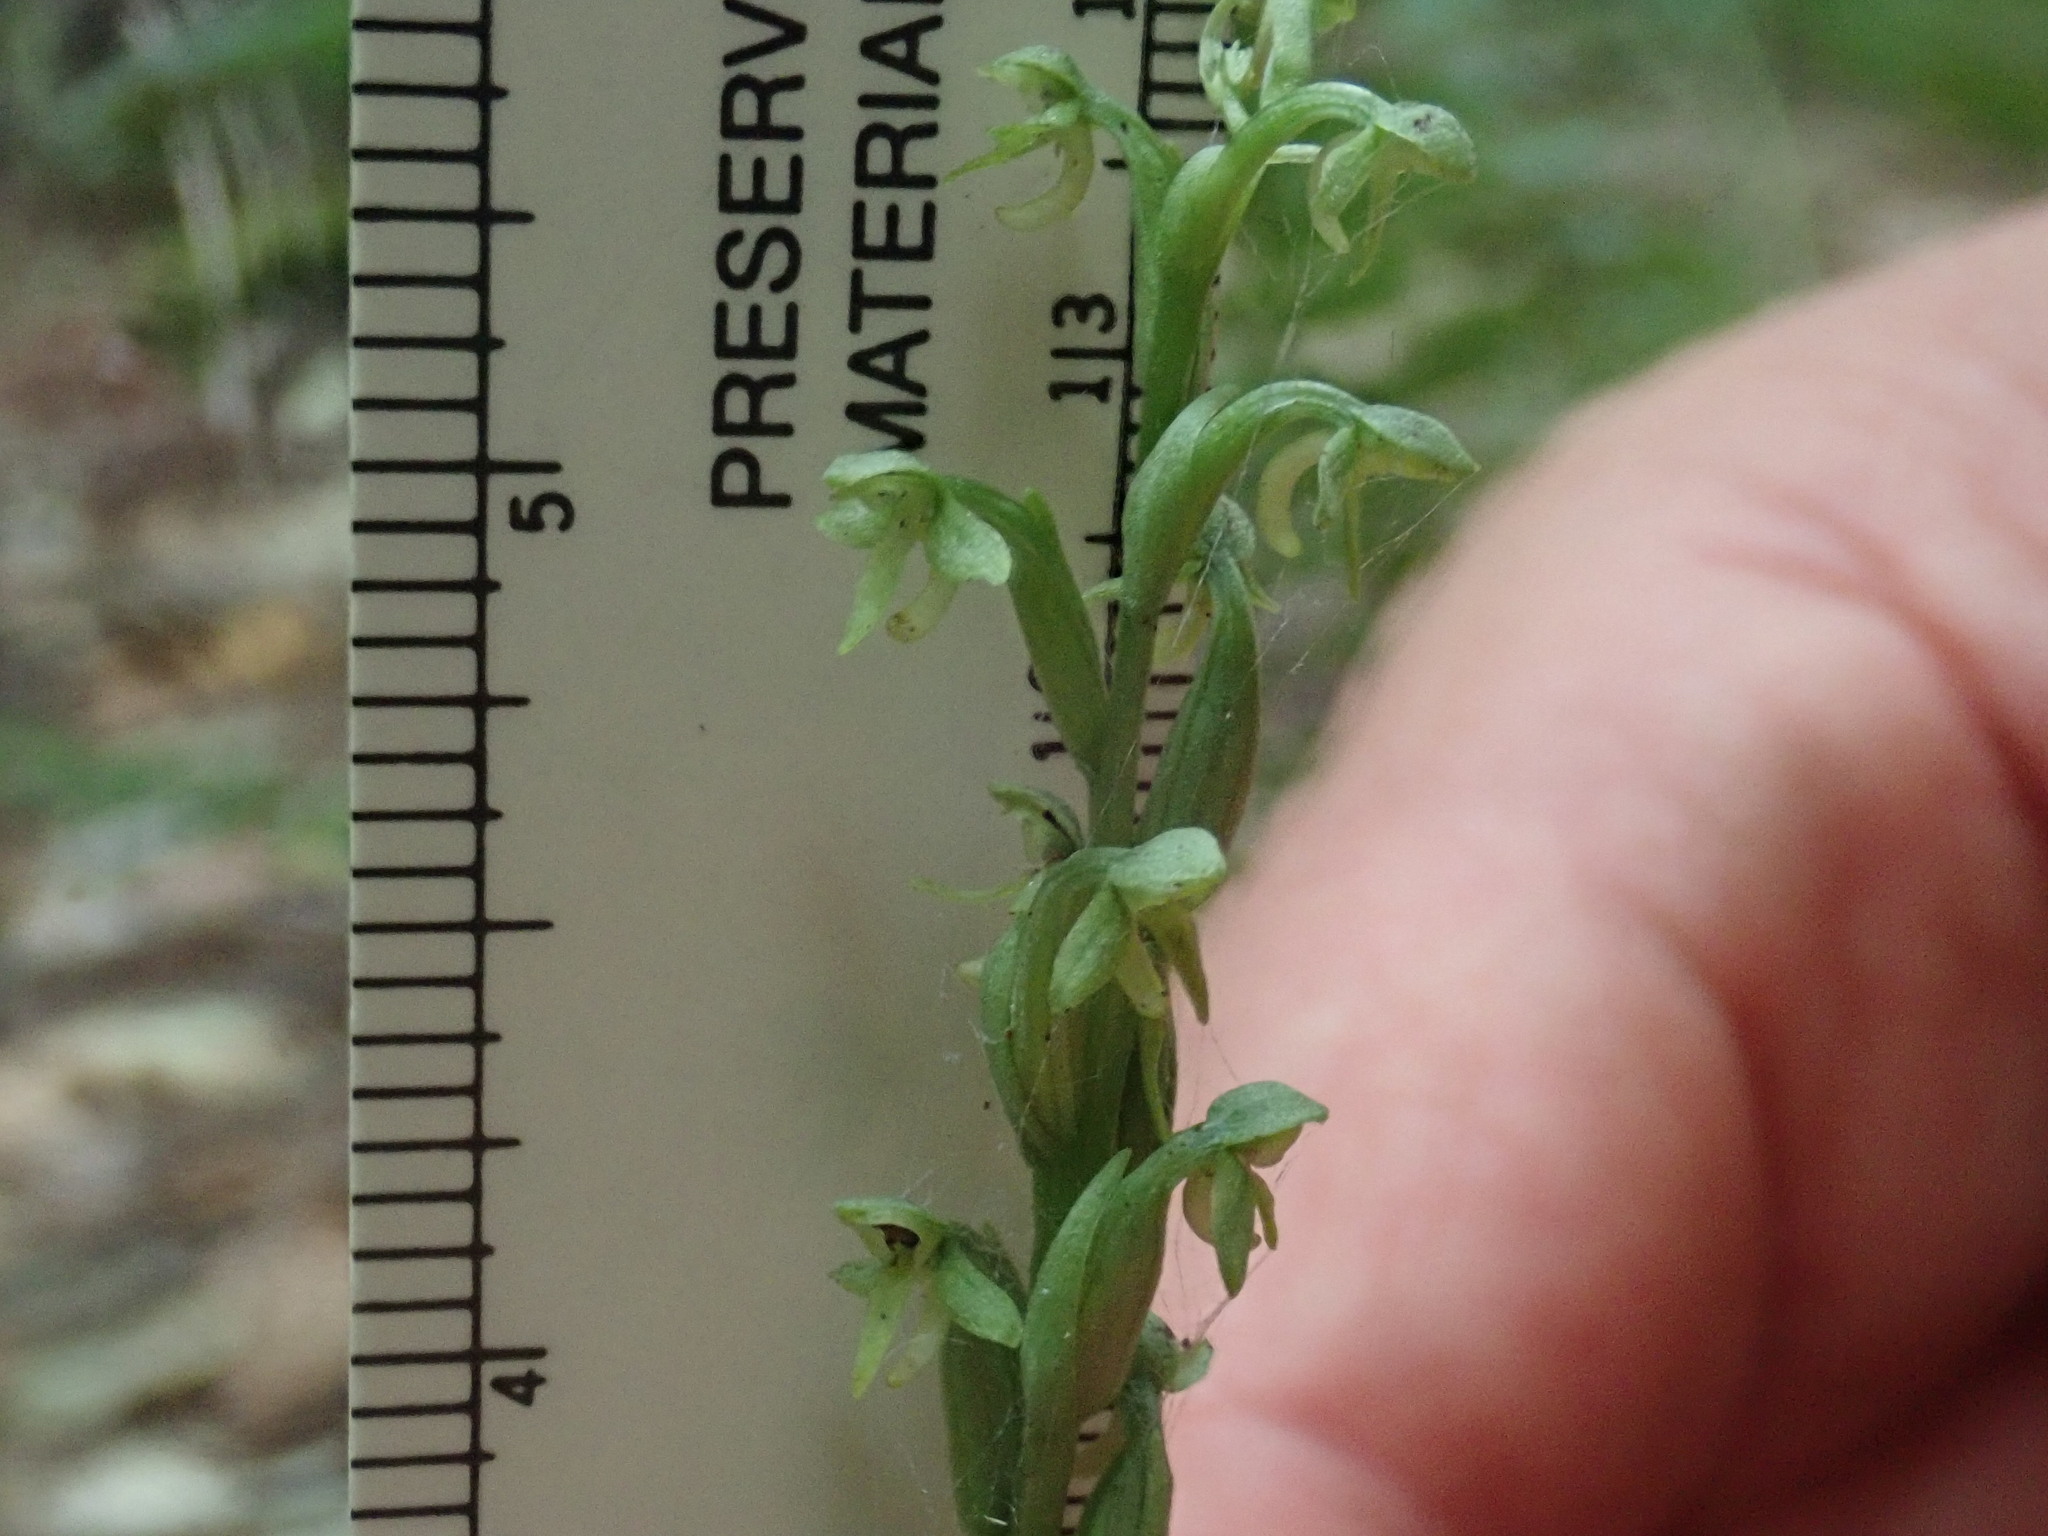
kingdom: Plantae
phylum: Tracheophyta
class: Liliopsida
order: Asparagales
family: Orchidaceae
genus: Platanthera
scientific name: Platanthera aquilonis
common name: Northern green orchid
